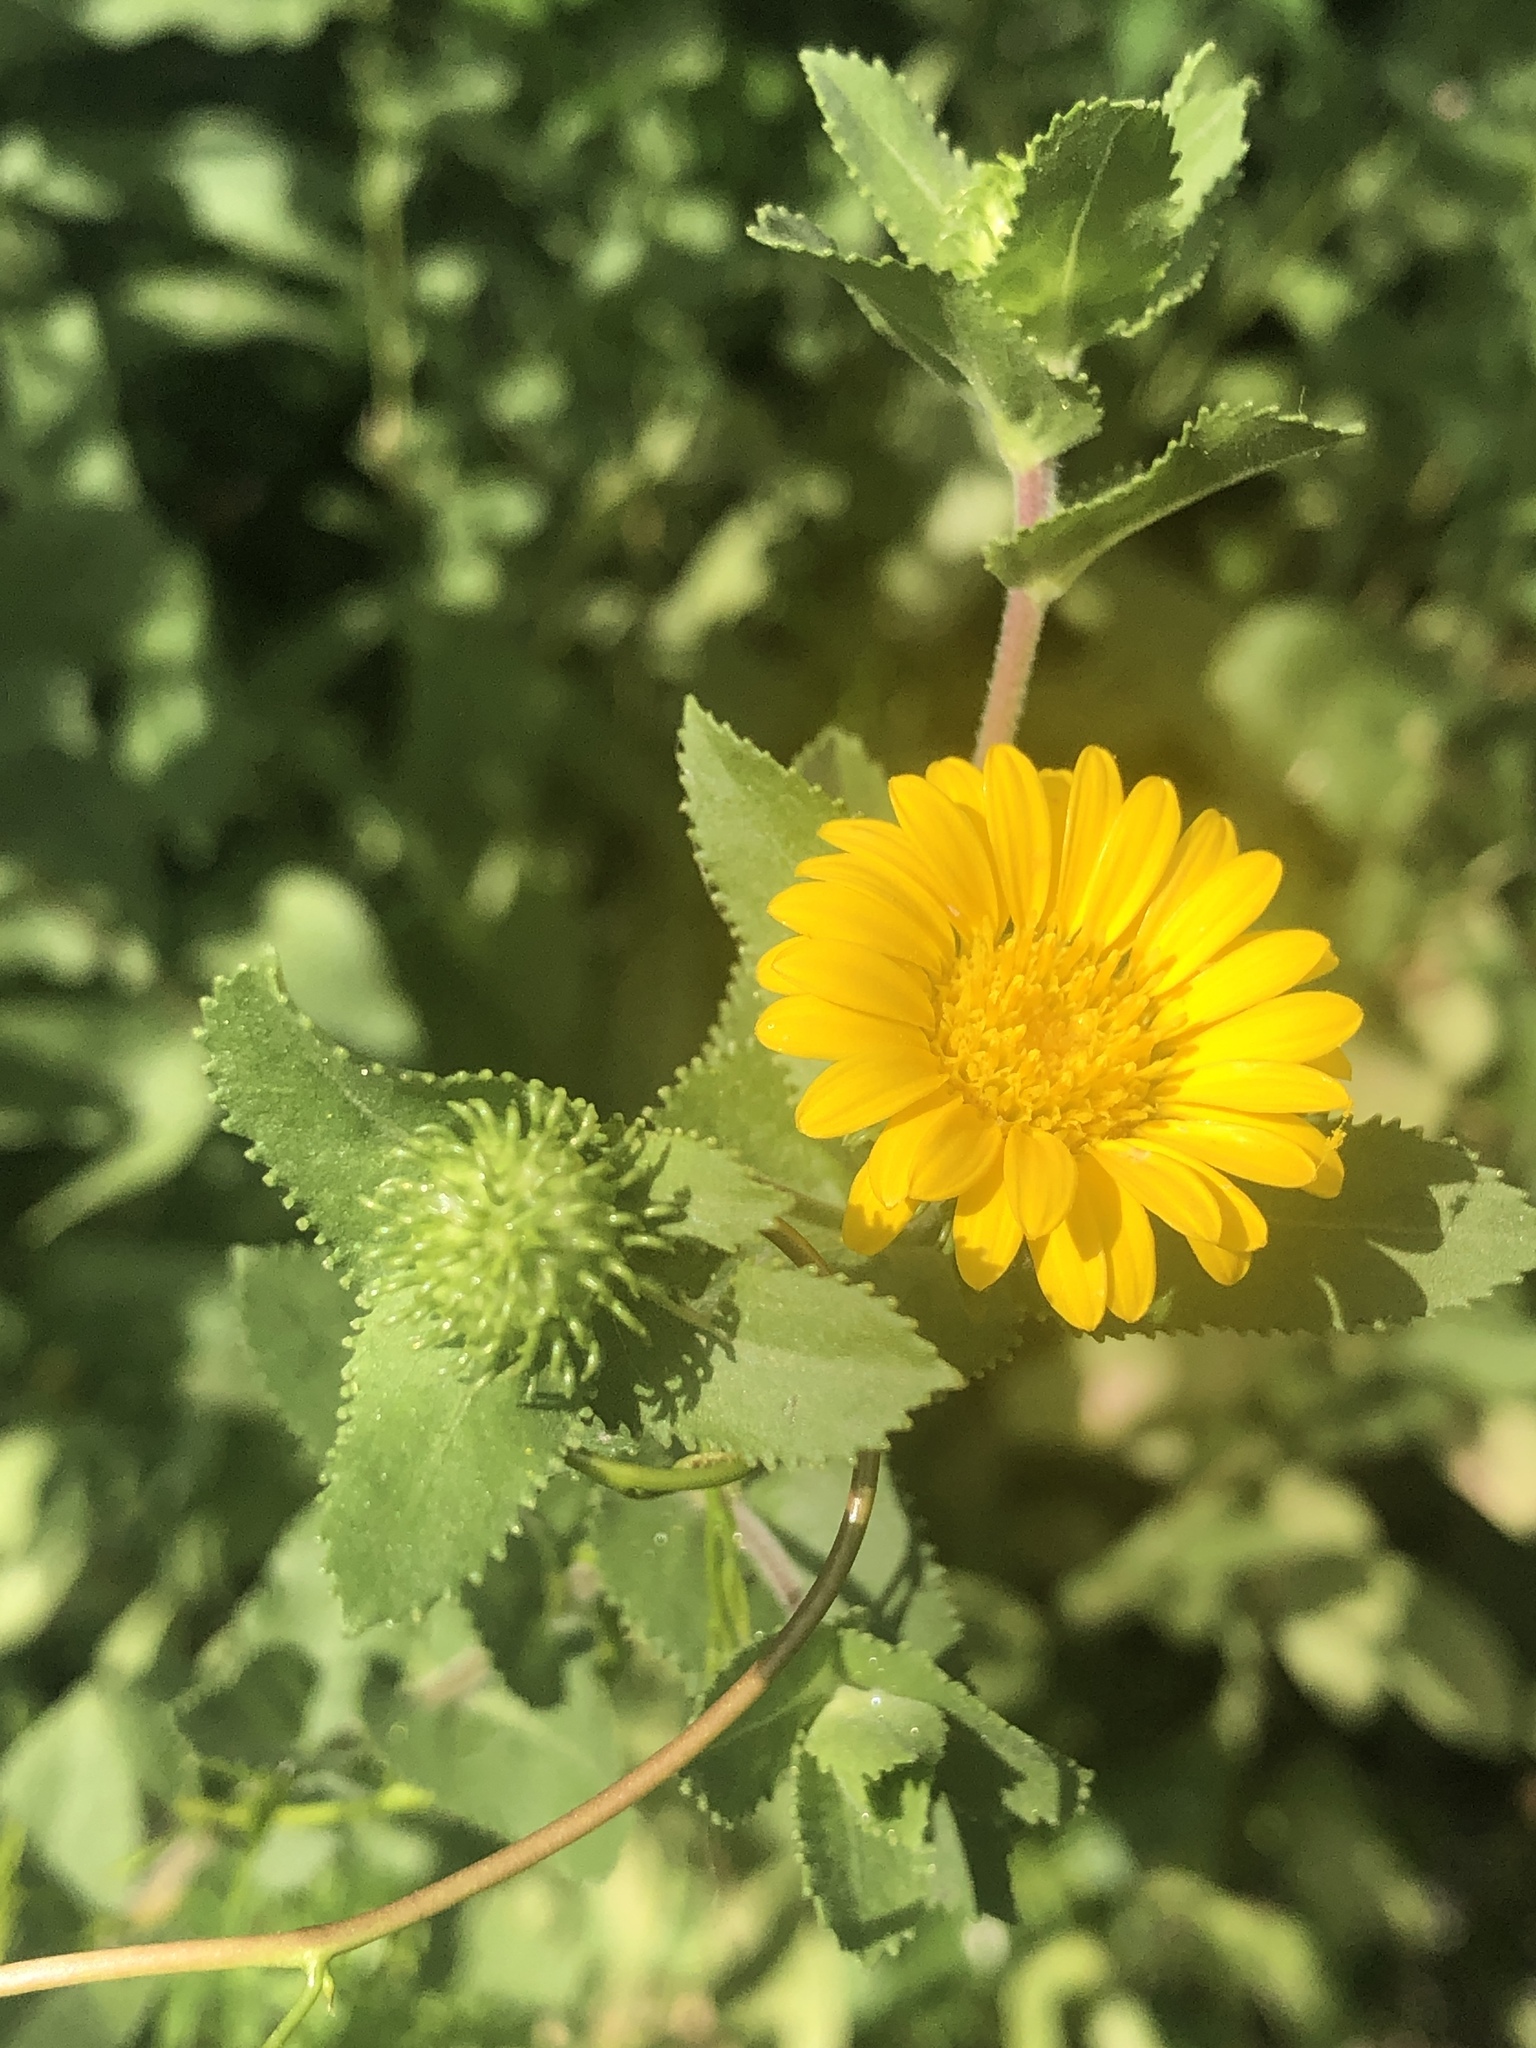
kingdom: Plantae
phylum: Tracheophyta
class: Magnoliopsida
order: Asterales
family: Asteraceae
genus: Grindelia
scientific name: Grindelia adenodonta
